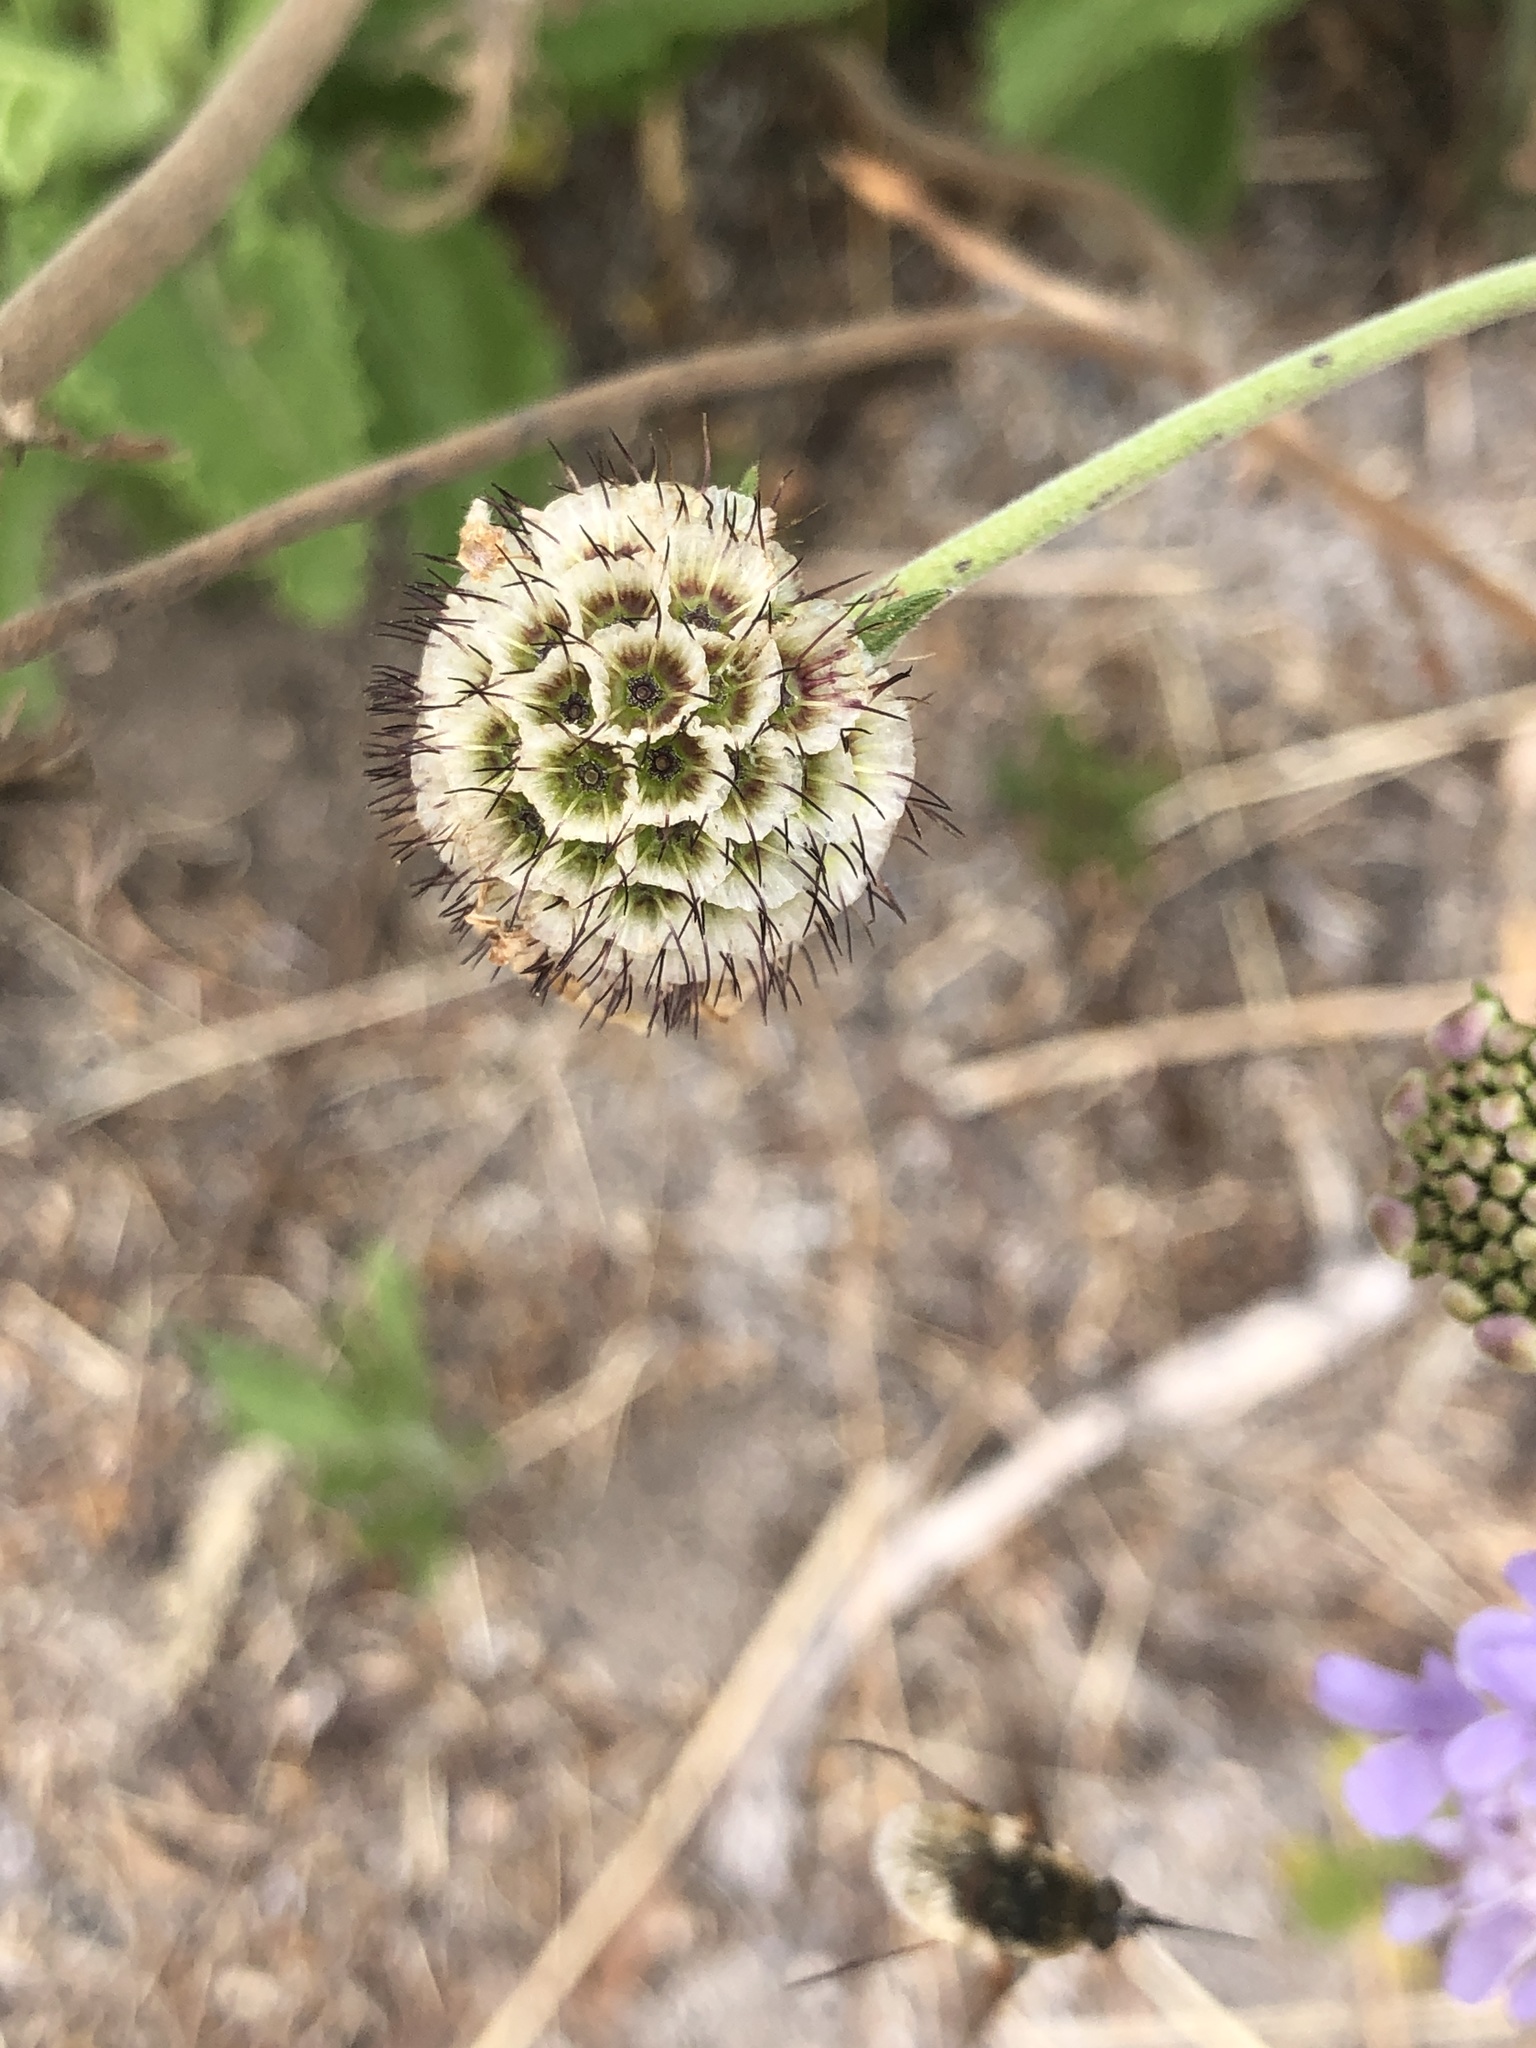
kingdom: Plantae
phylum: Tracheophyta
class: Magnoliopsida
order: Dipsacales
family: Caprifoliaceae
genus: Scabiosa
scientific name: Scabiosa africana
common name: Cape scabious
